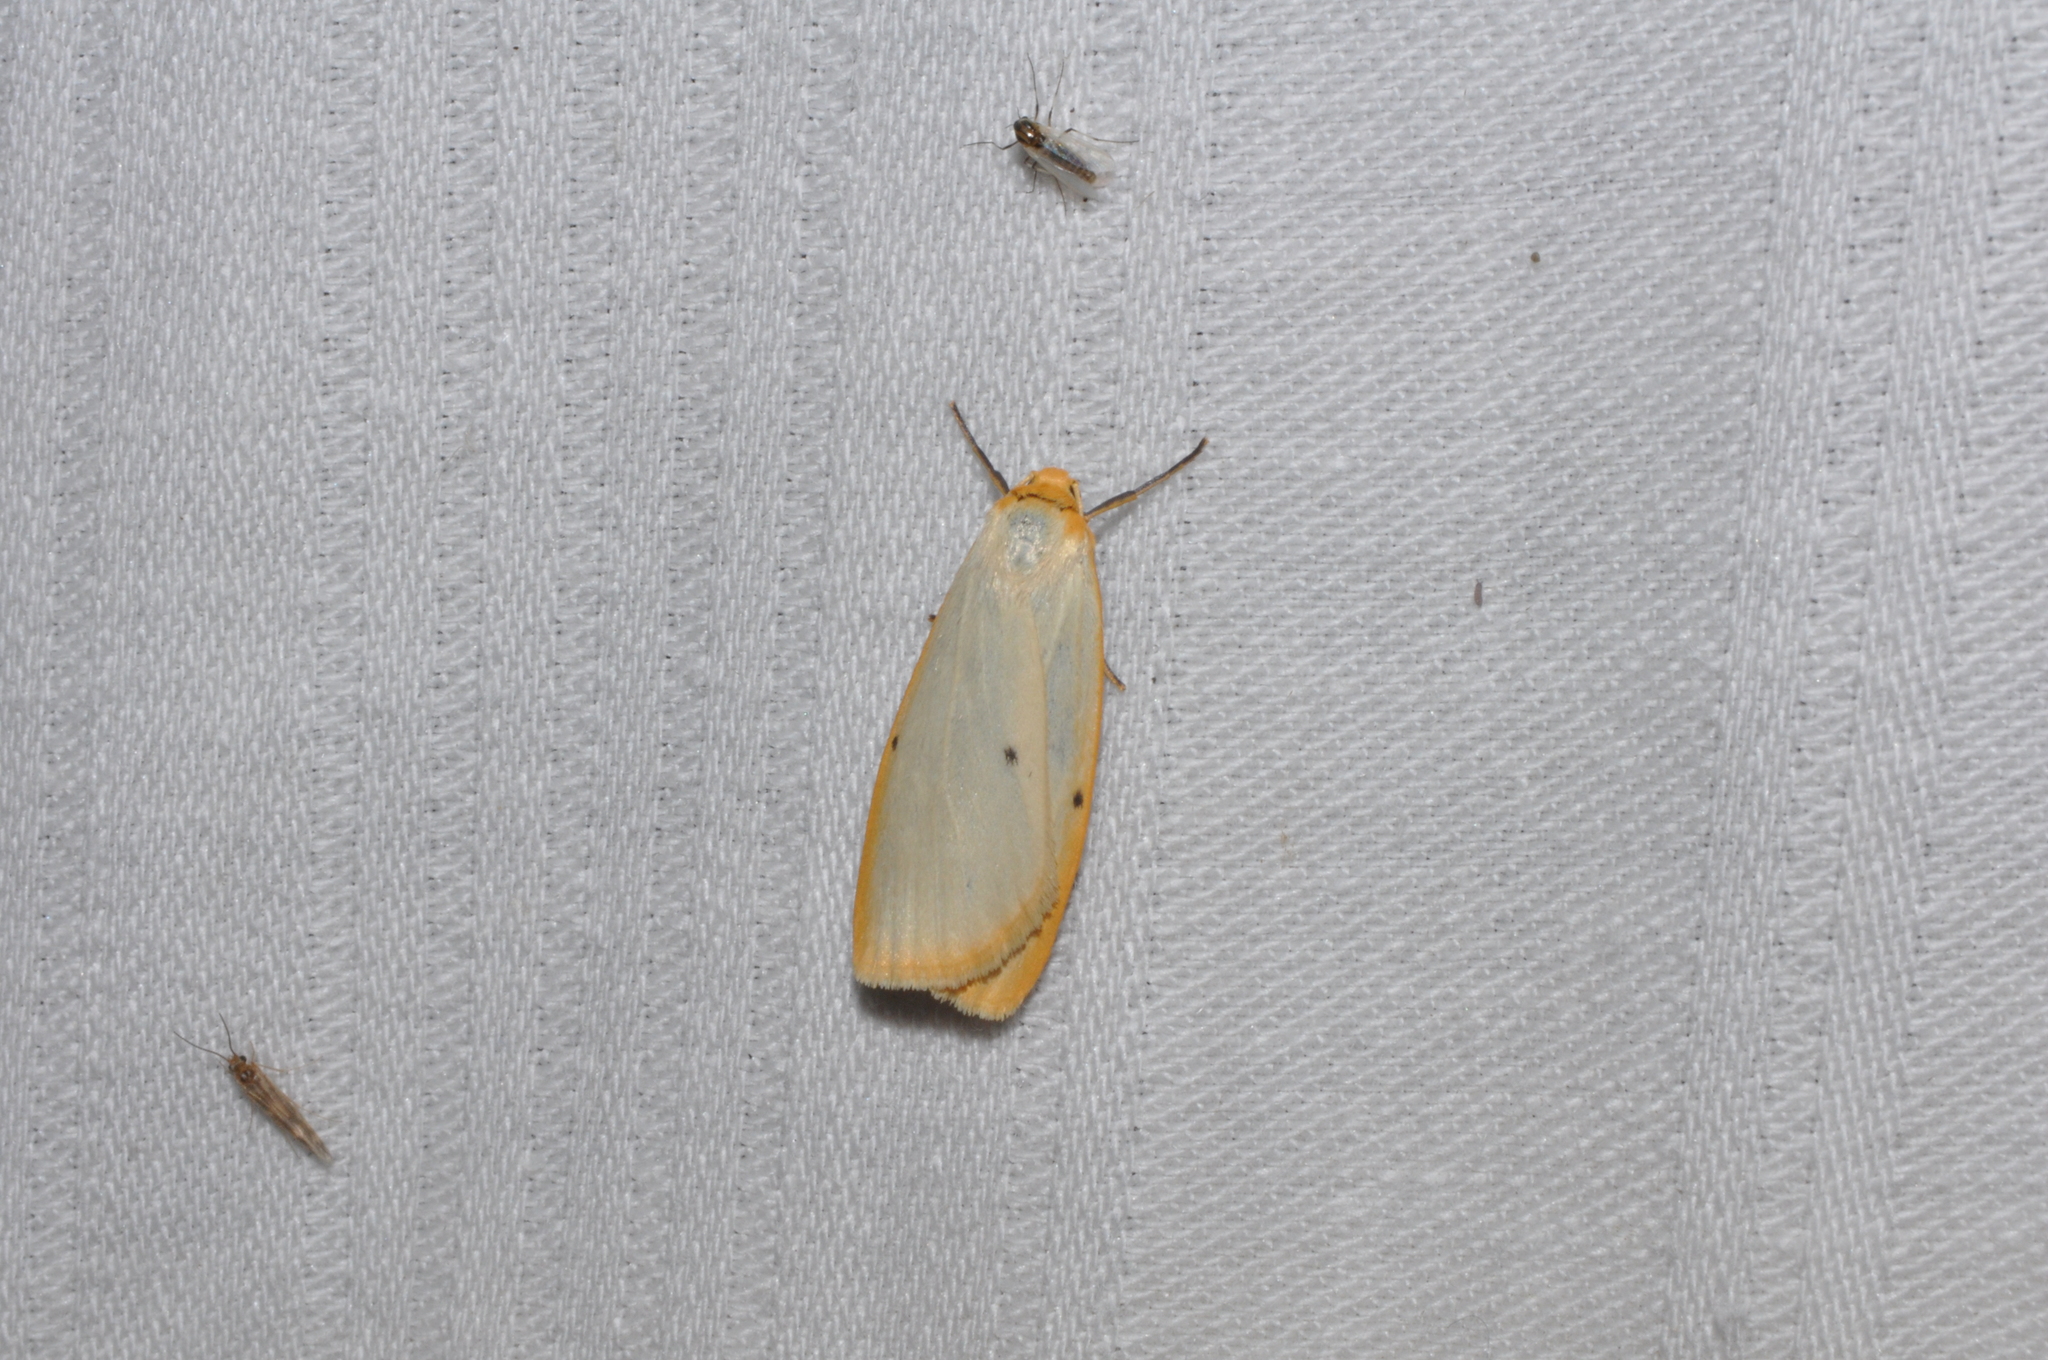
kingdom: Animalia
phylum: Arthropoda
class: Insecta
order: Lepidoptera
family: Erebidae
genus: Cybosia
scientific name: Cybosia mesomella
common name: Four-dotted footman
